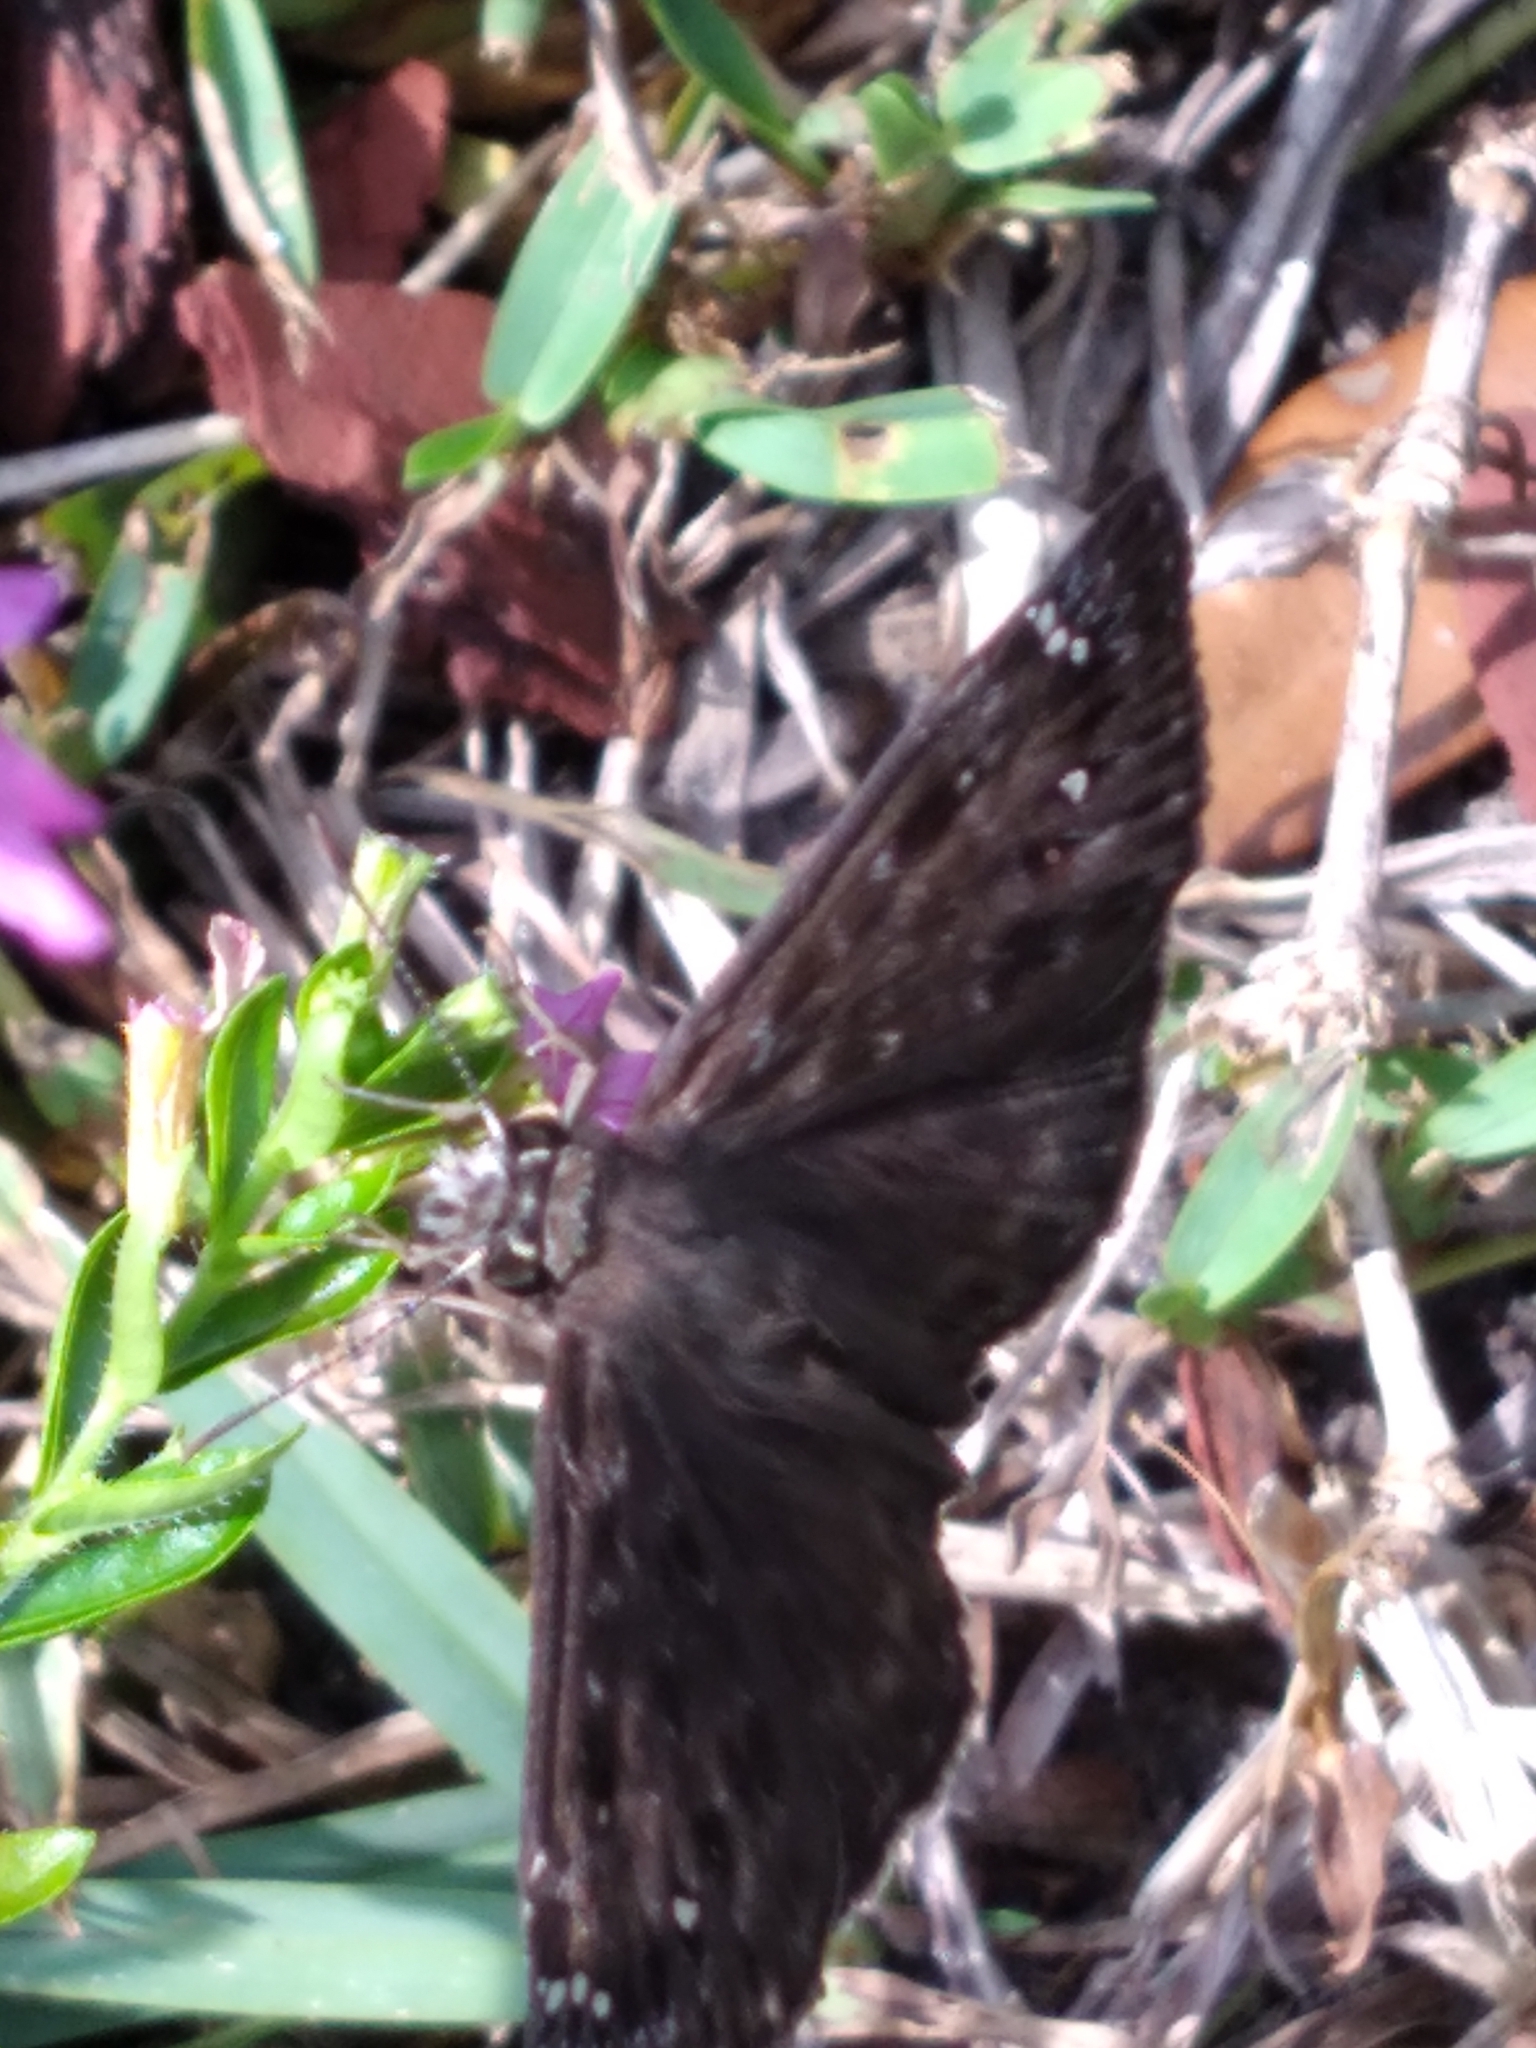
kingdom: Animalia
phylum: Arthropoda
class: Insecta
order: Lepidoptera
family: Hesperiidae
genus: Erynnis
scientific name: Erynnis horatius
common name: Horace's duskywing
